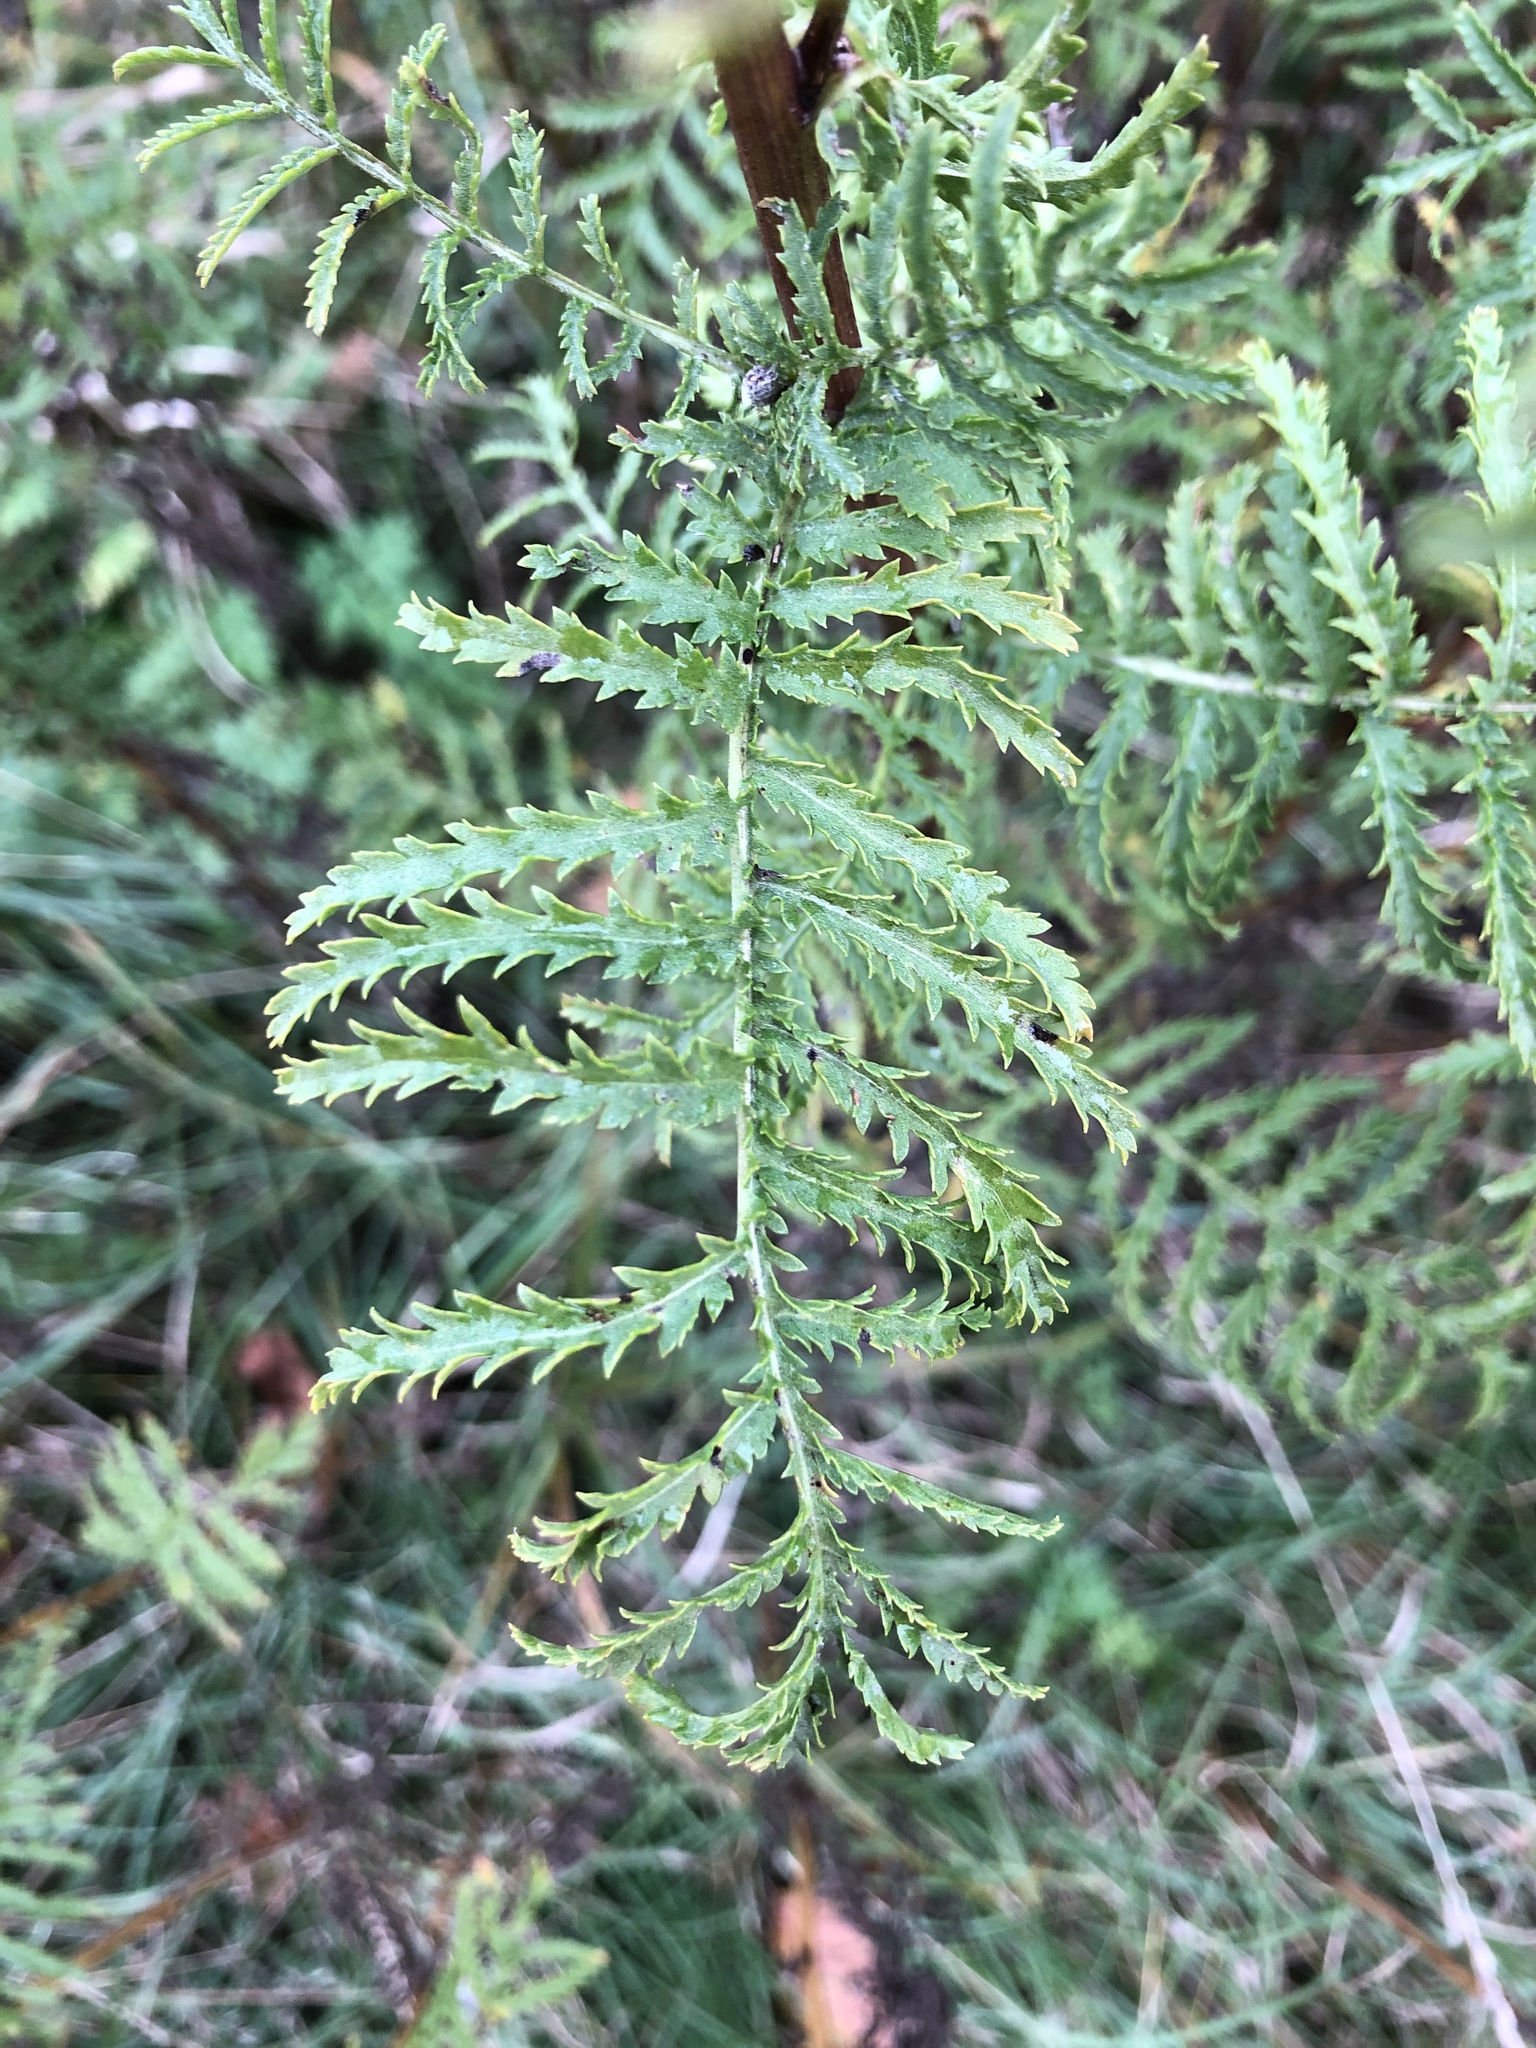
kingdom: Plantae
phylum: Tracheophyta
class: Magnoliopsida
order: Asterales
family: Asteraceae
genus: Tanacetum
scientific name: Tanacetum vulgare
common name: Common tansy
